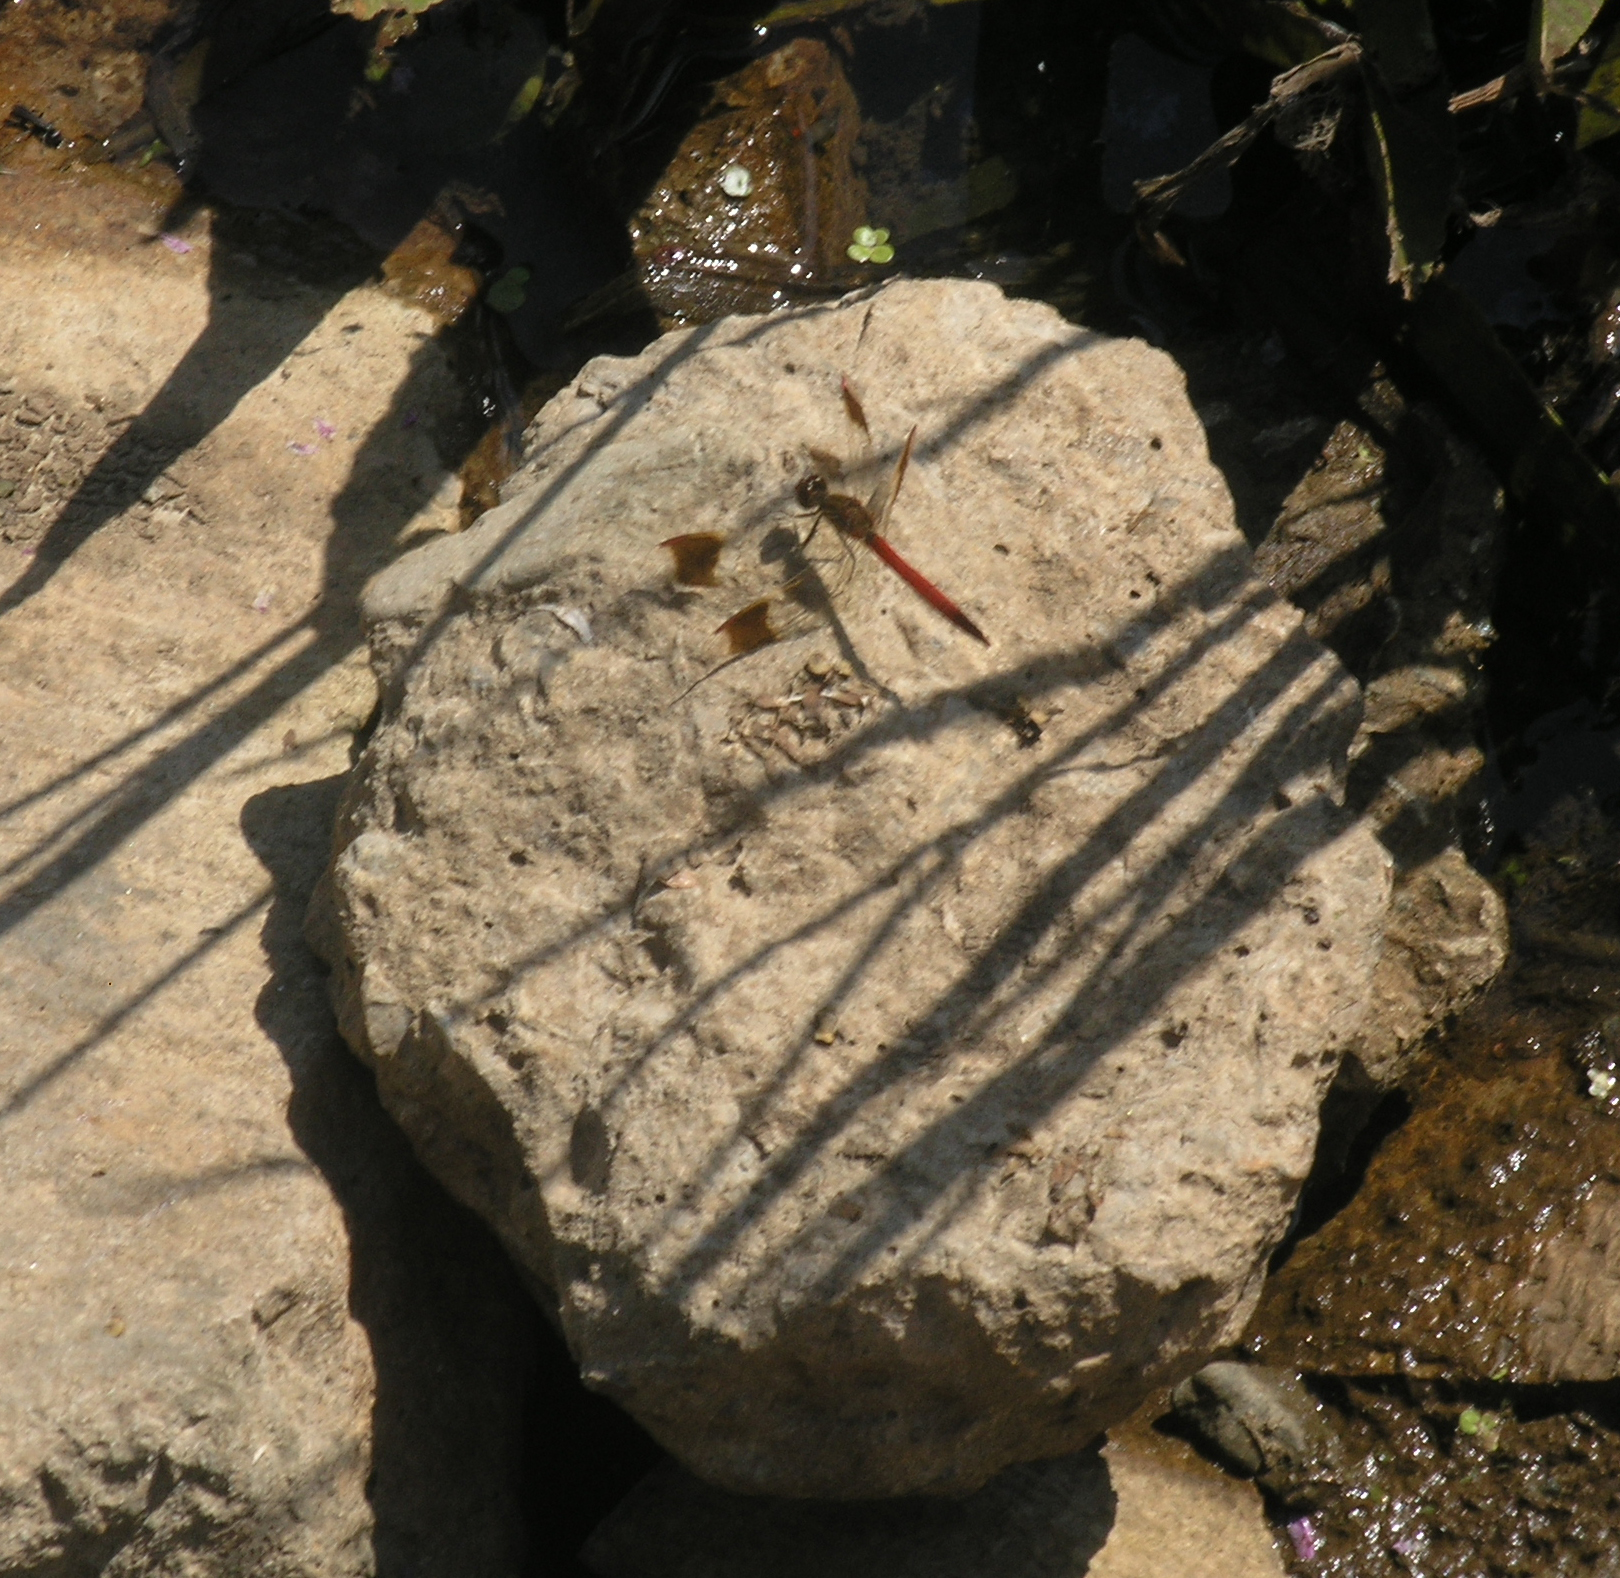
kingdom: Animalia
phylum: Arthropoda
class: Insecta
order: Odonata
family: Libellulidae
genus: Sympetrum
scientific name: Sympetrum pedemontanum
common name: Banded darter
